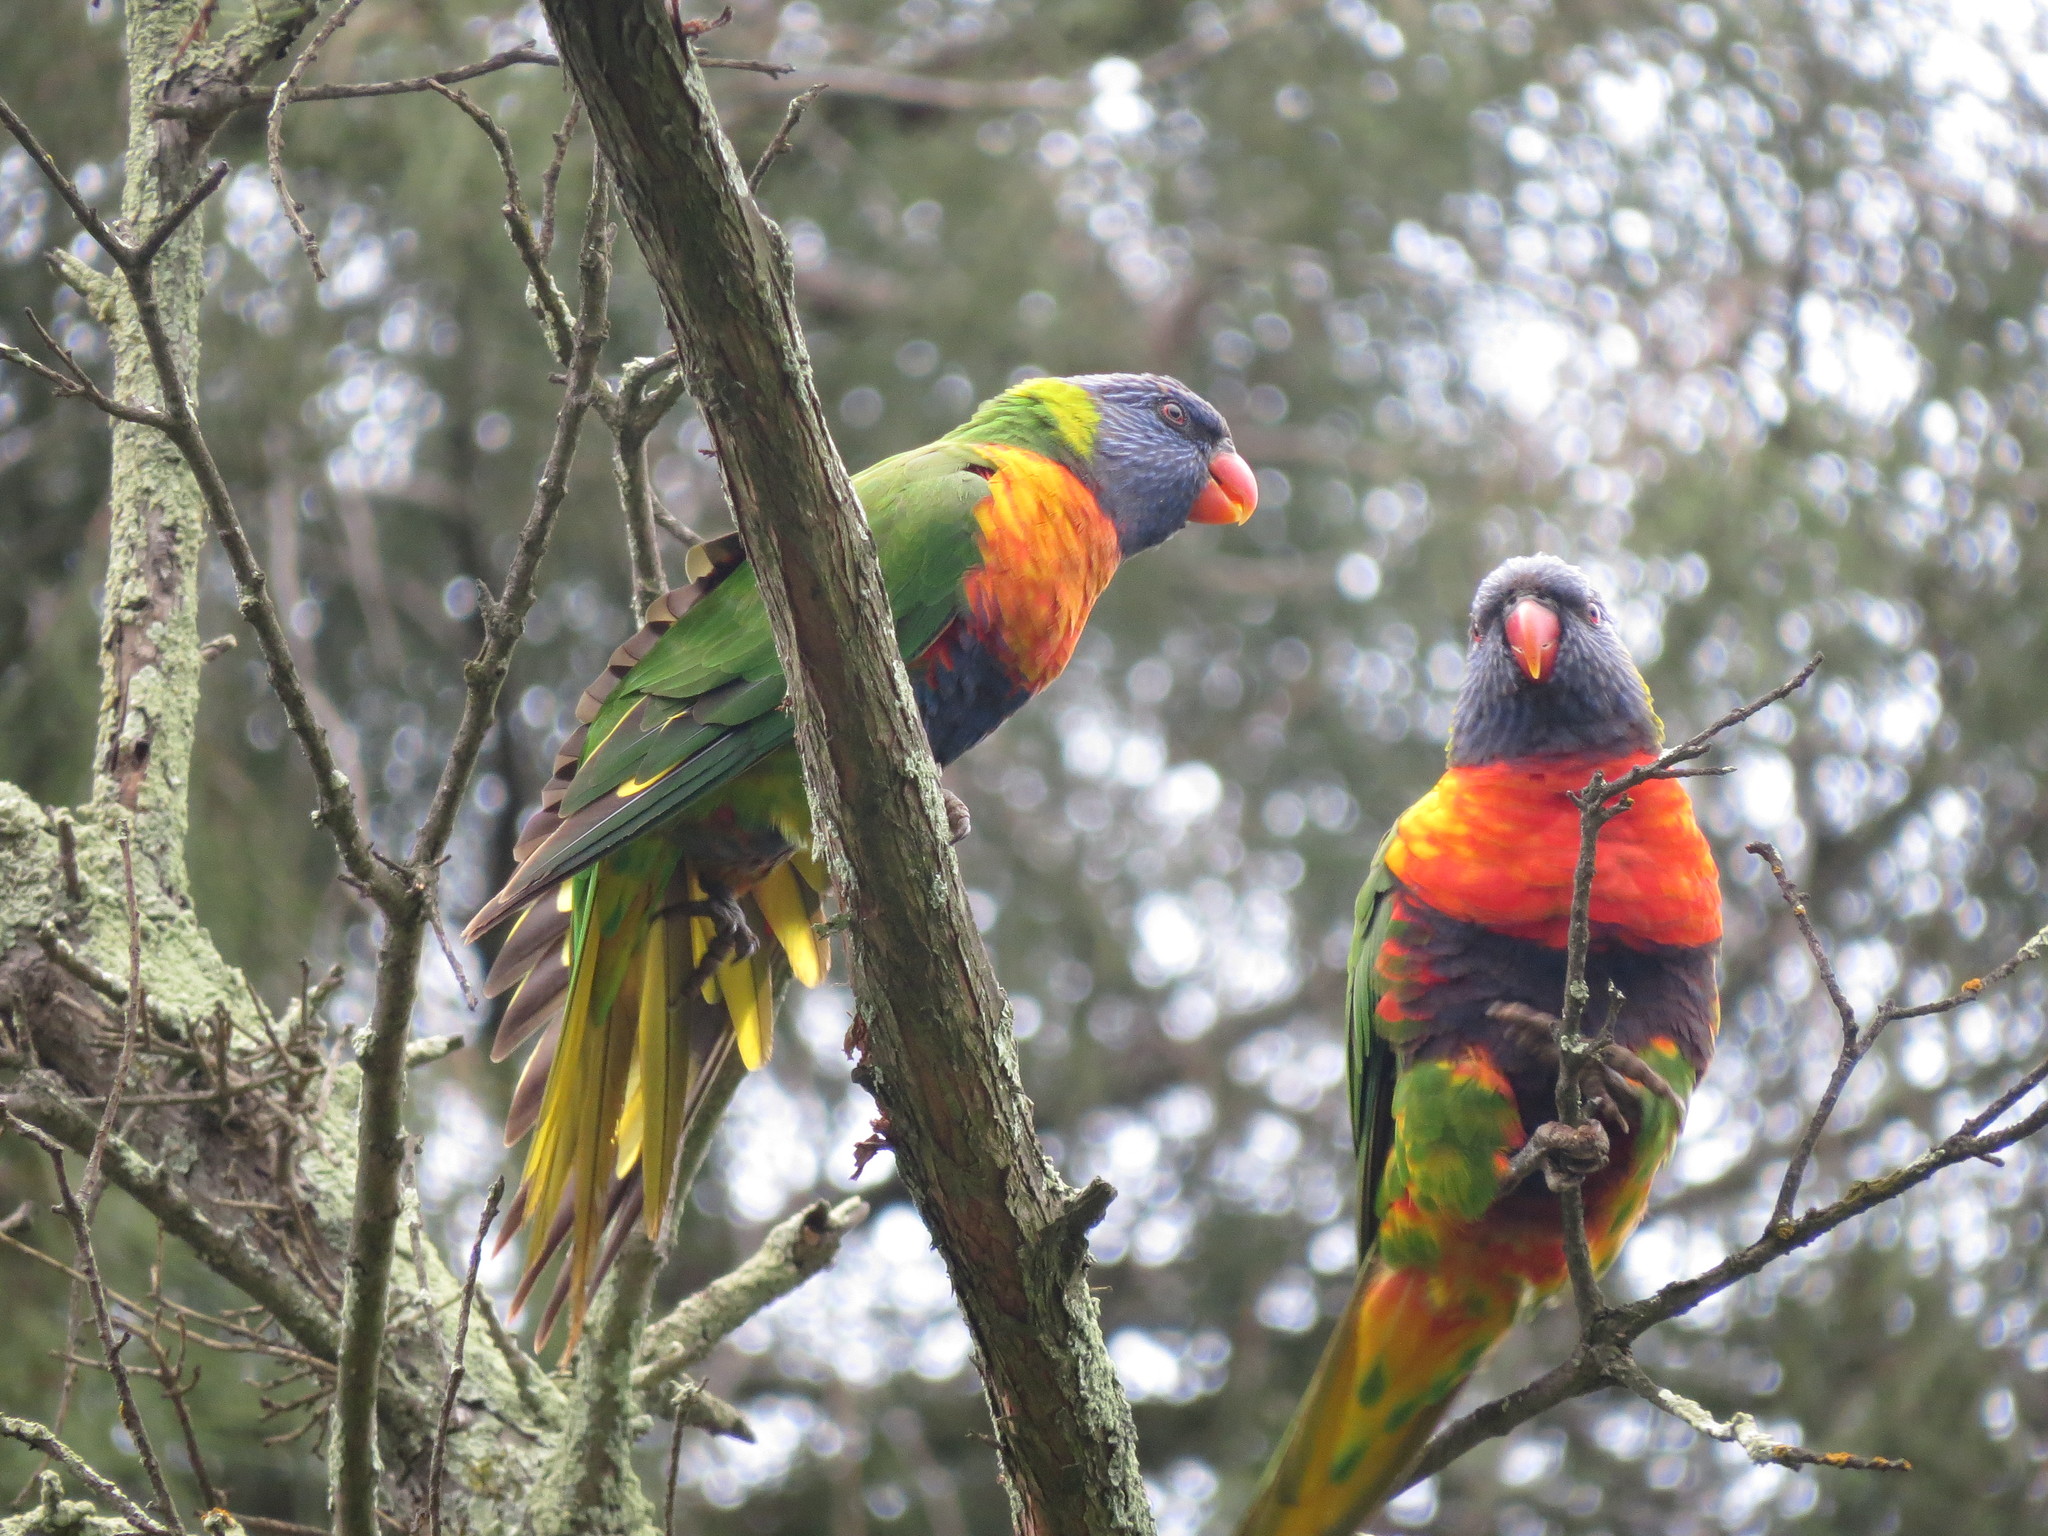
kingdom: Animalia
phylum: Chordata
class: Aves
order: Psittaciformes
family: Psittacidae
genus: Trichoglossus
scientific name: Trichoglossus haematodus
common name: Coconut lorikeet
